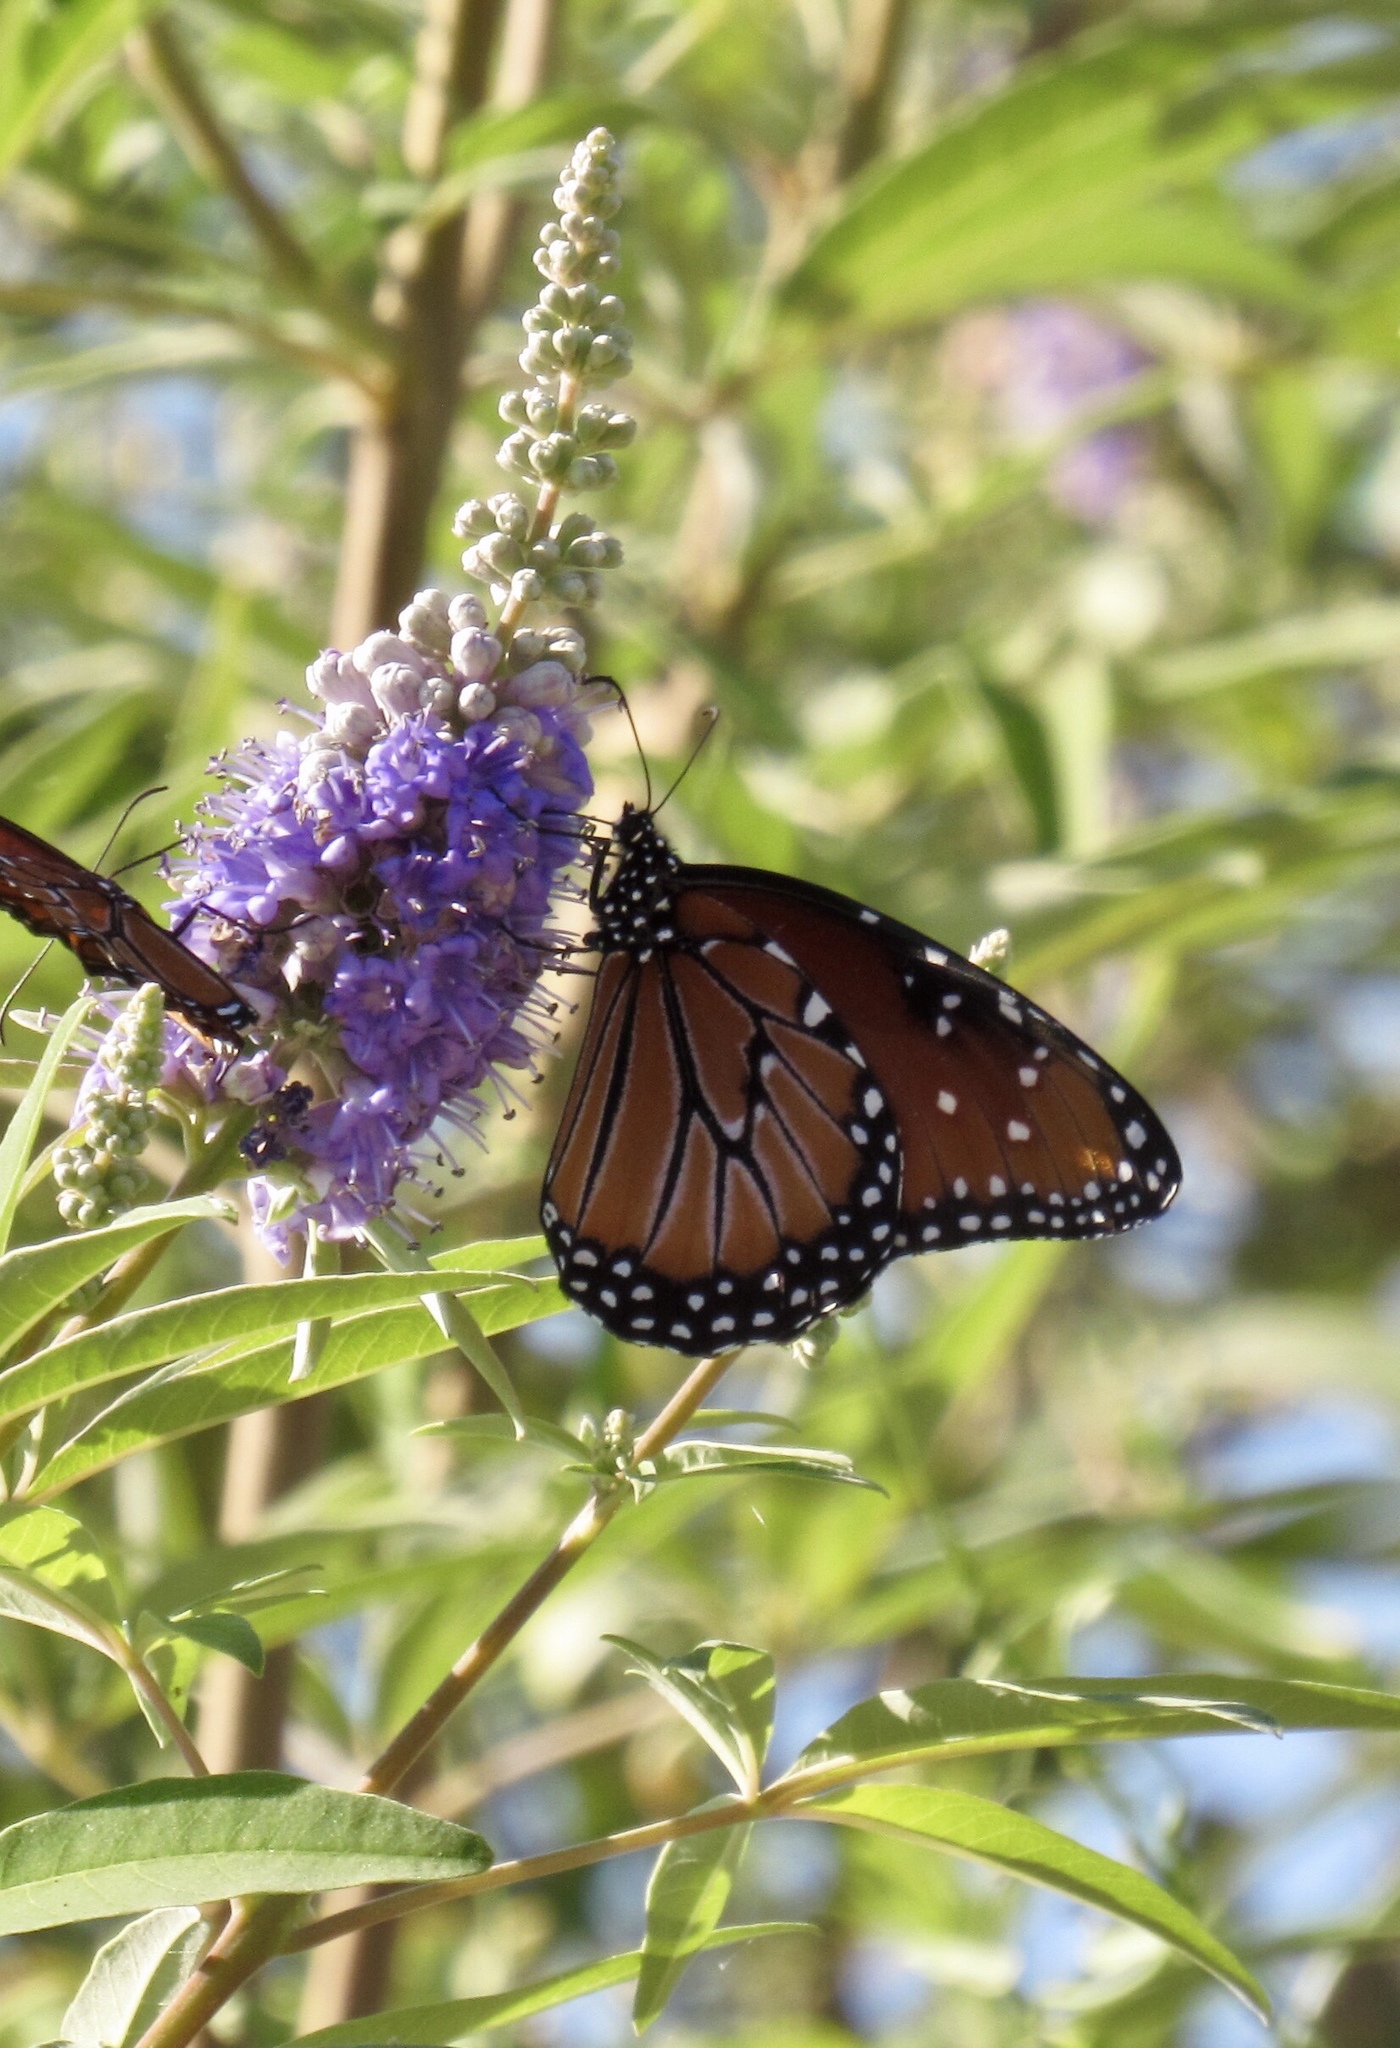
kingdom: Animalia
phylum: Arthropoda
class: Insecta
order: Lepidoptera
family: Nymphalidae
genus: Danaus
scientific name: Danaus gilippus
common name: Queen
